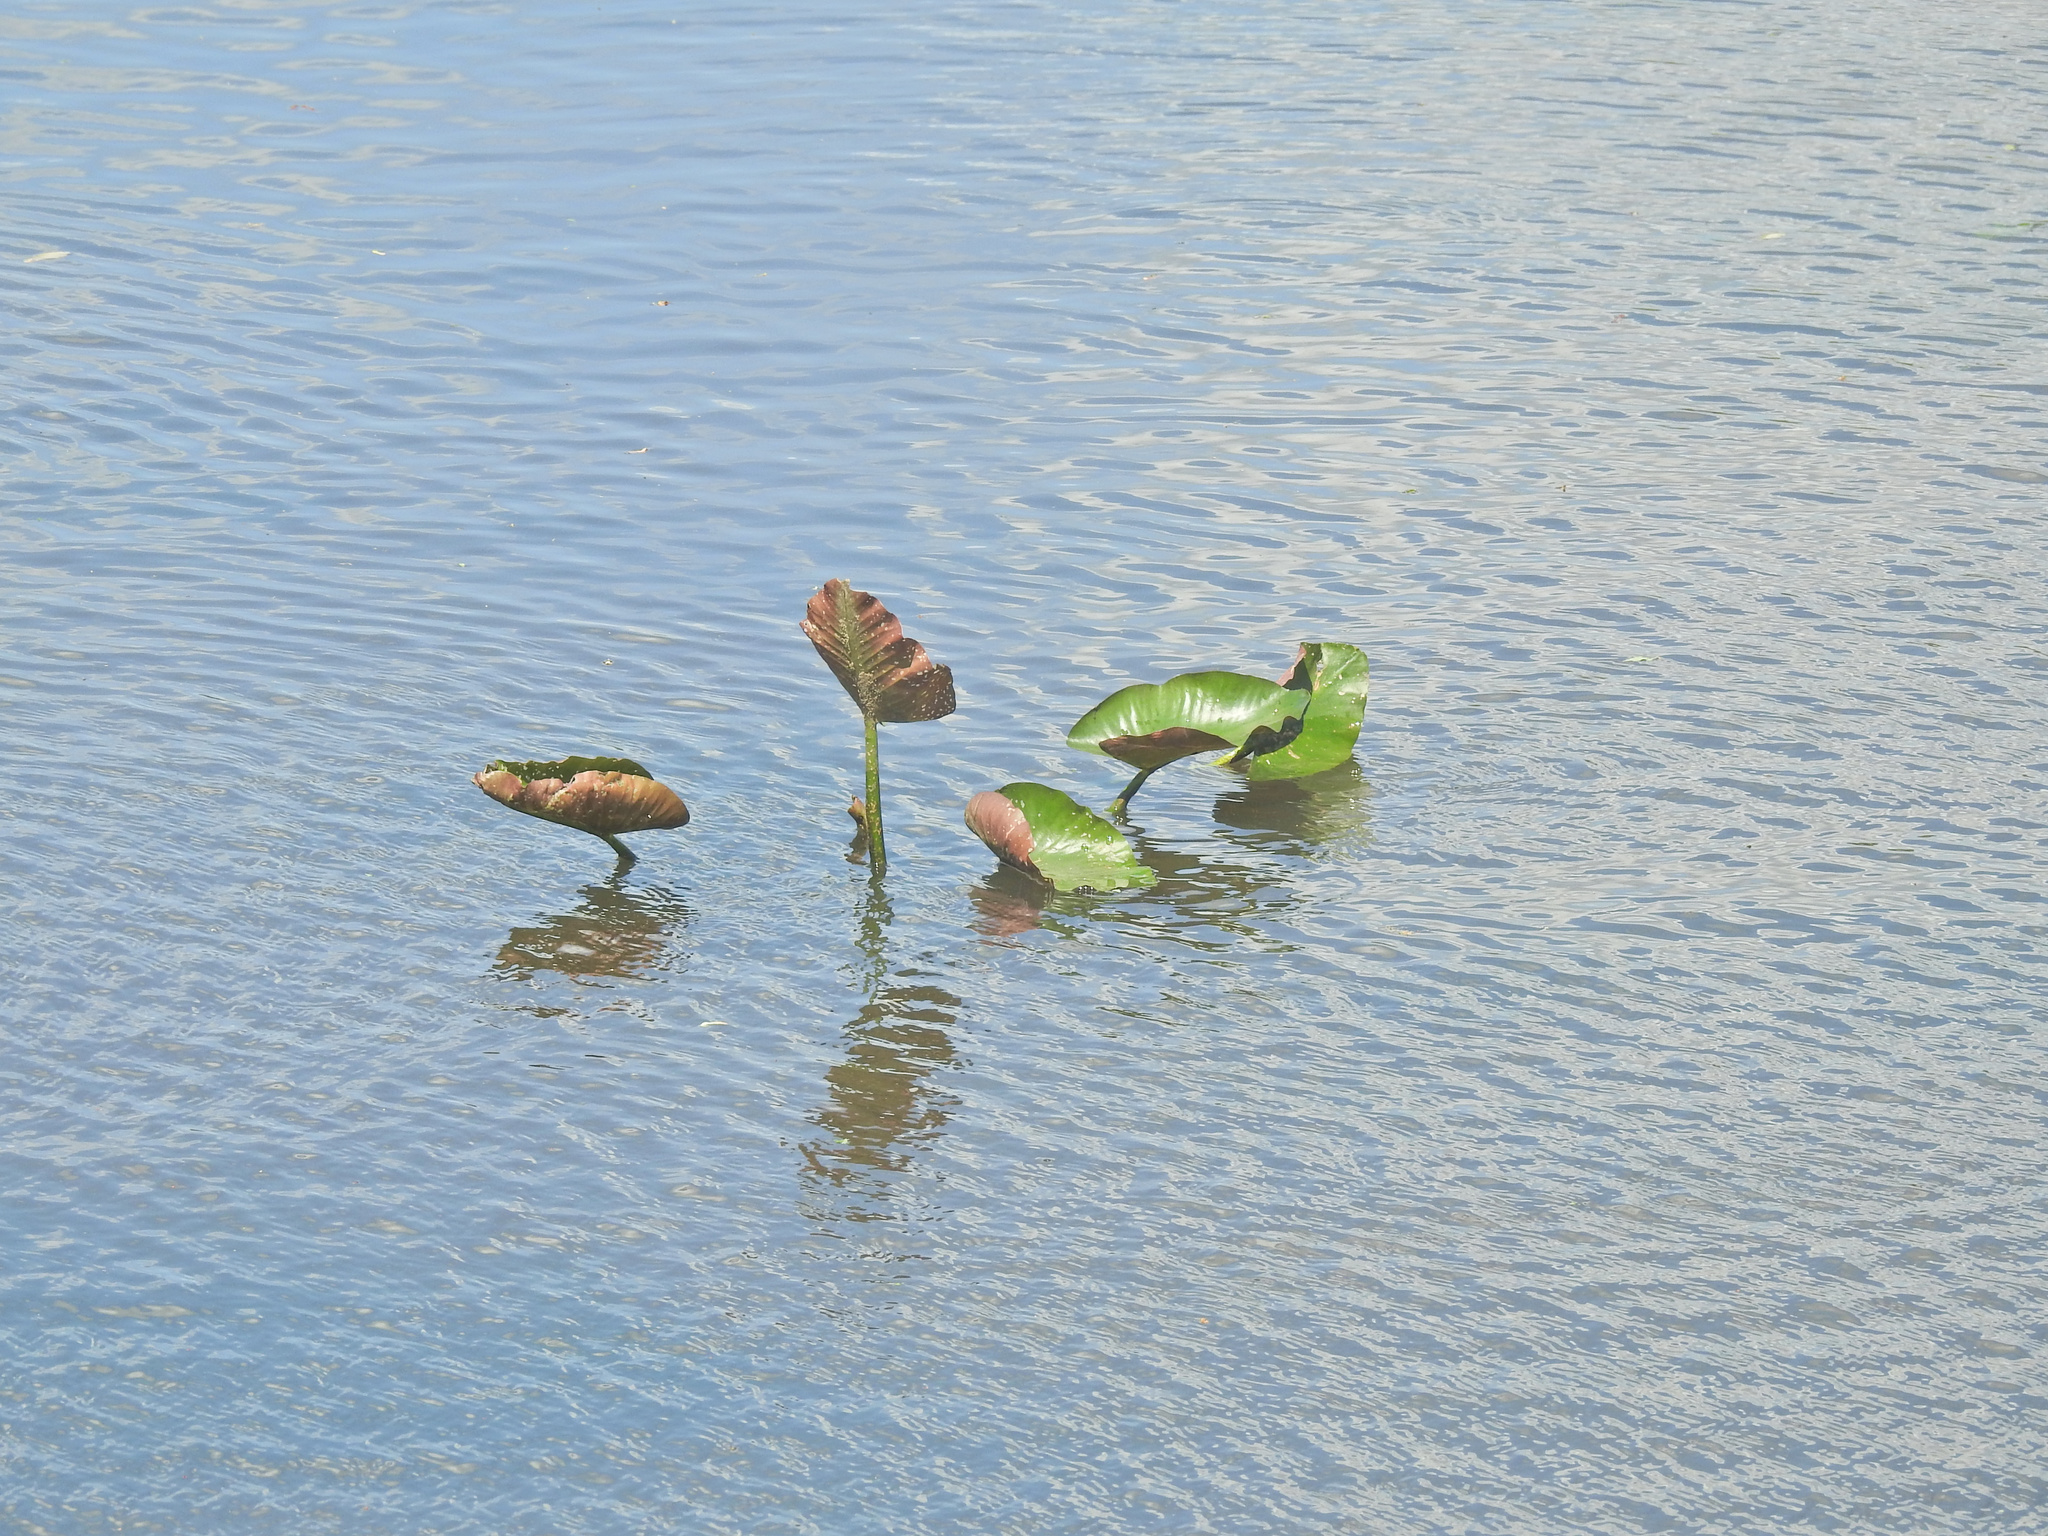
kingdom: Plantae
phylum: Tracheophyta
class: Magnoliopsida
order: Nymphaeales
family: Nymphaeaceae
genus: Nuphar
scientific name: Nuphar advena
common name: Spatter-dock
